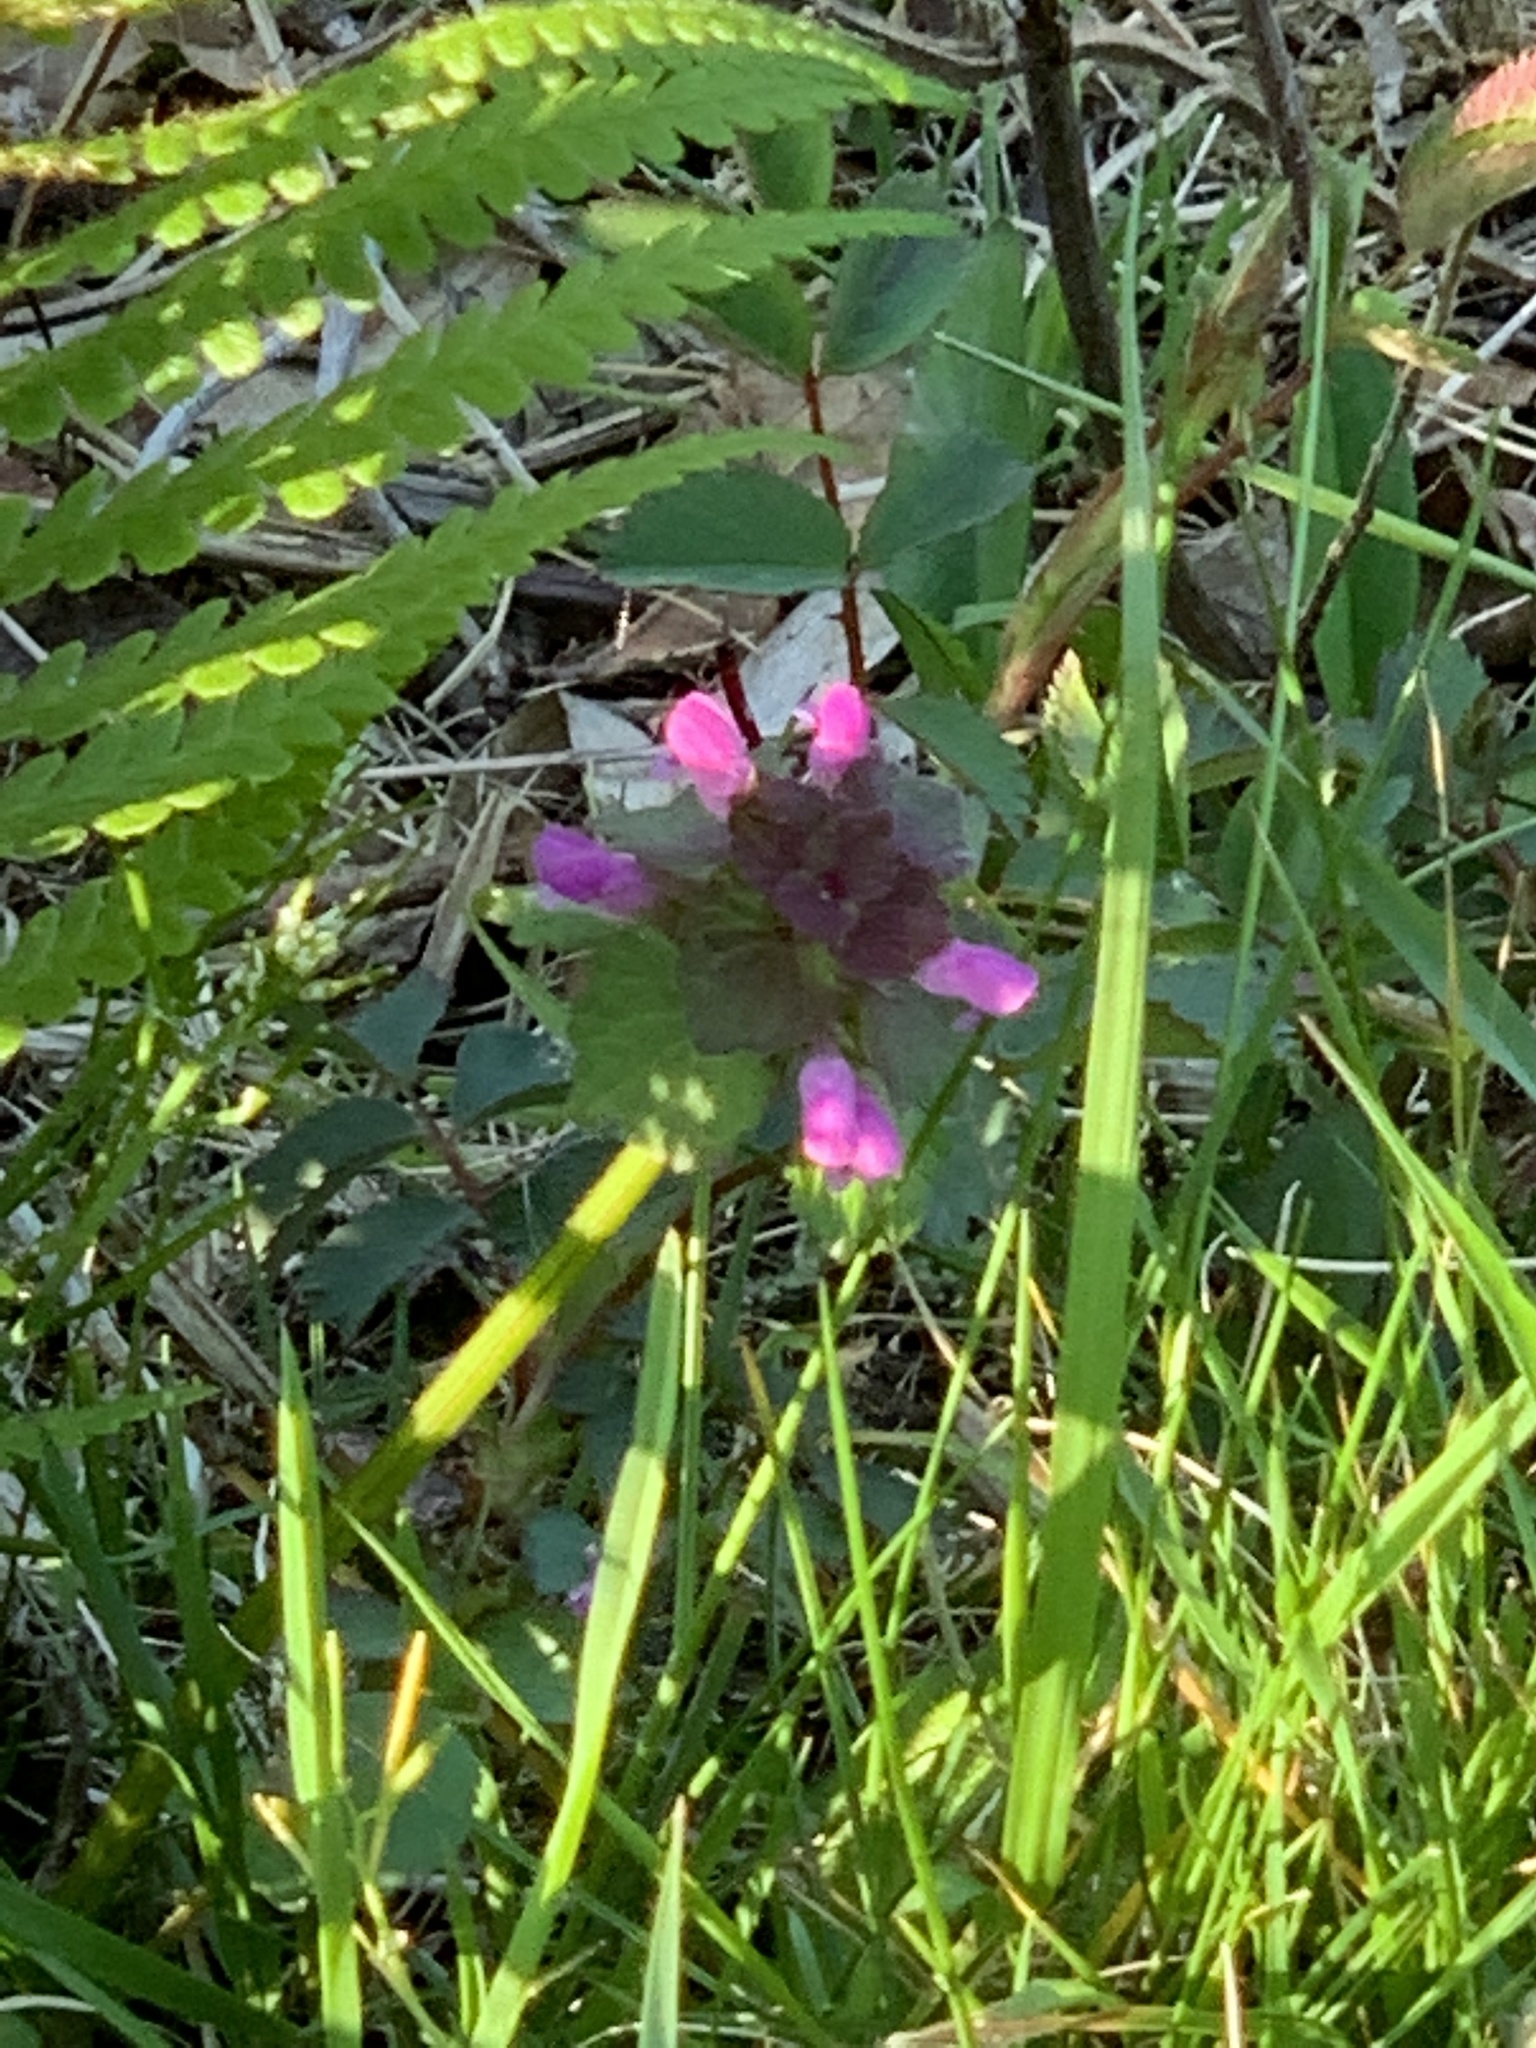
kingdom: Plantae
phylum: Tracheophyta
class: Magnoliopsida
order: Lamiales
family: Lamiaceae
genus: Lamium
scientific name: Lamium purpureum
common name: Red dead-nettle
